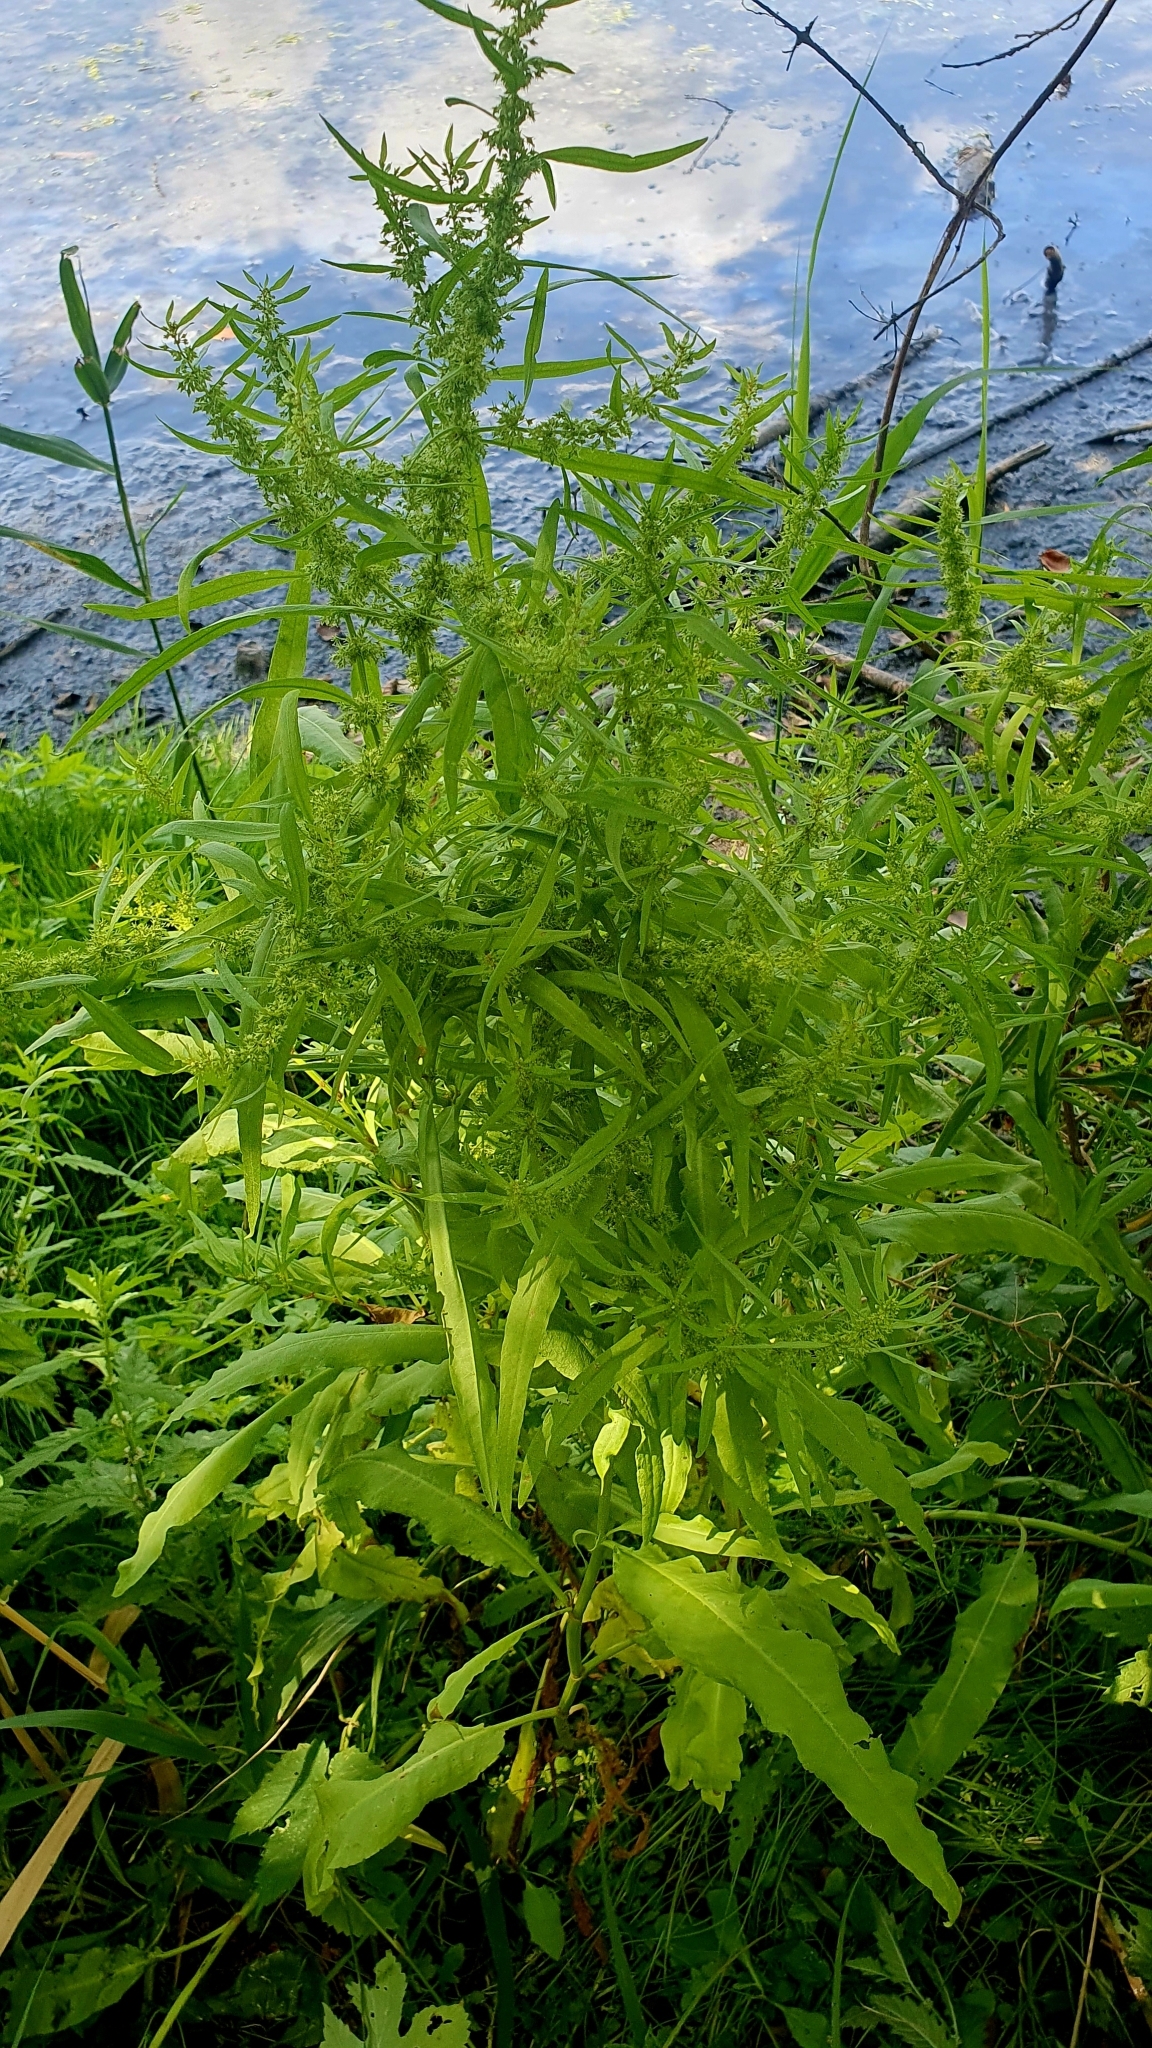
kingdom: Plantae
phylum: Tracheophyta
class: Magnoliopsida
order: Caryophyllales
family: Polygonaceae
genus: Rumex
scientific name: Rumex maritimus
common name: Golden dock
